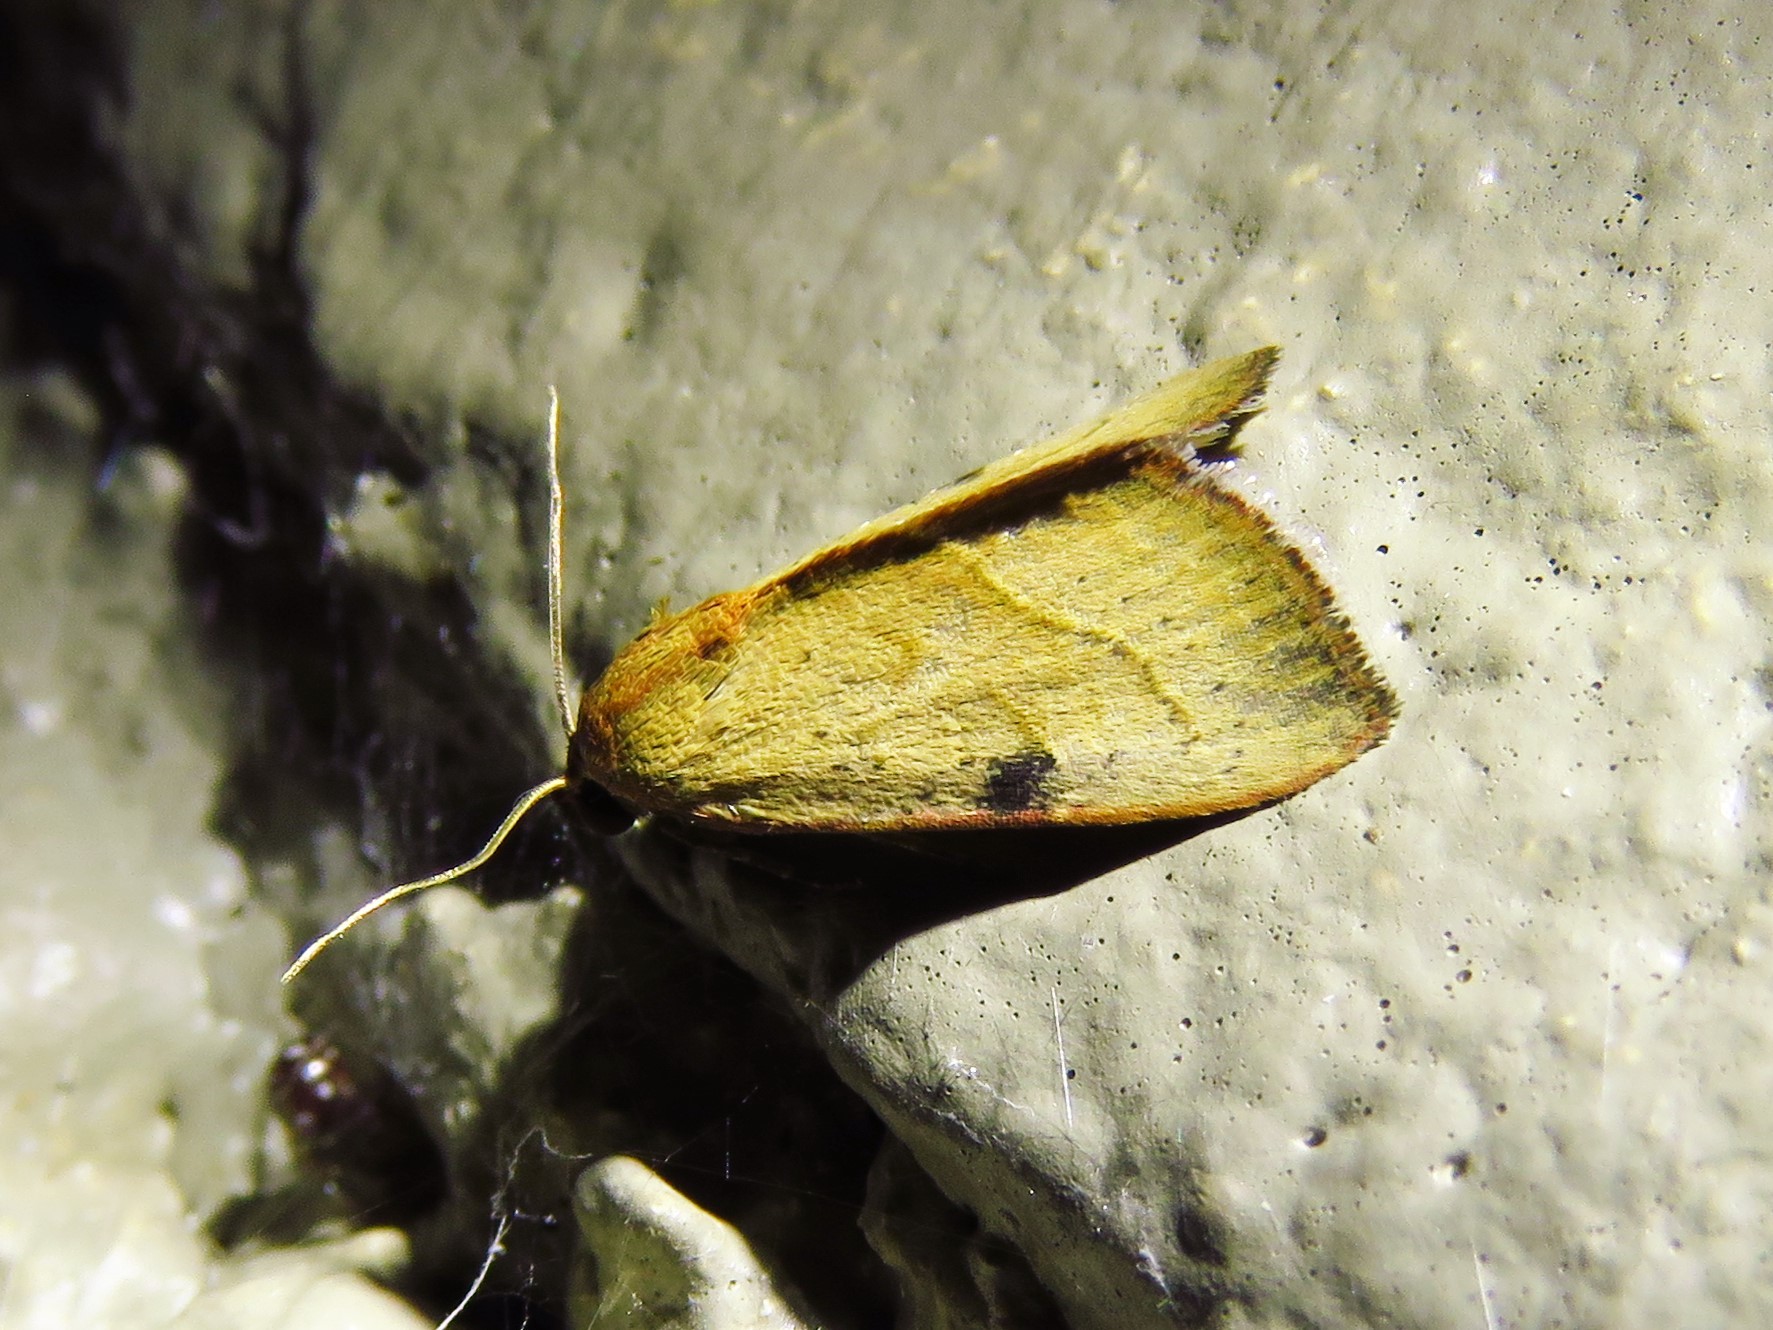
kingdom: Animalia
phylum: Arthropoda
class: Insecta
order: Lepidoptera
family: Noctuidae
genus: Galgula
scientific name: Galgula partita
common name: Wedgeling
